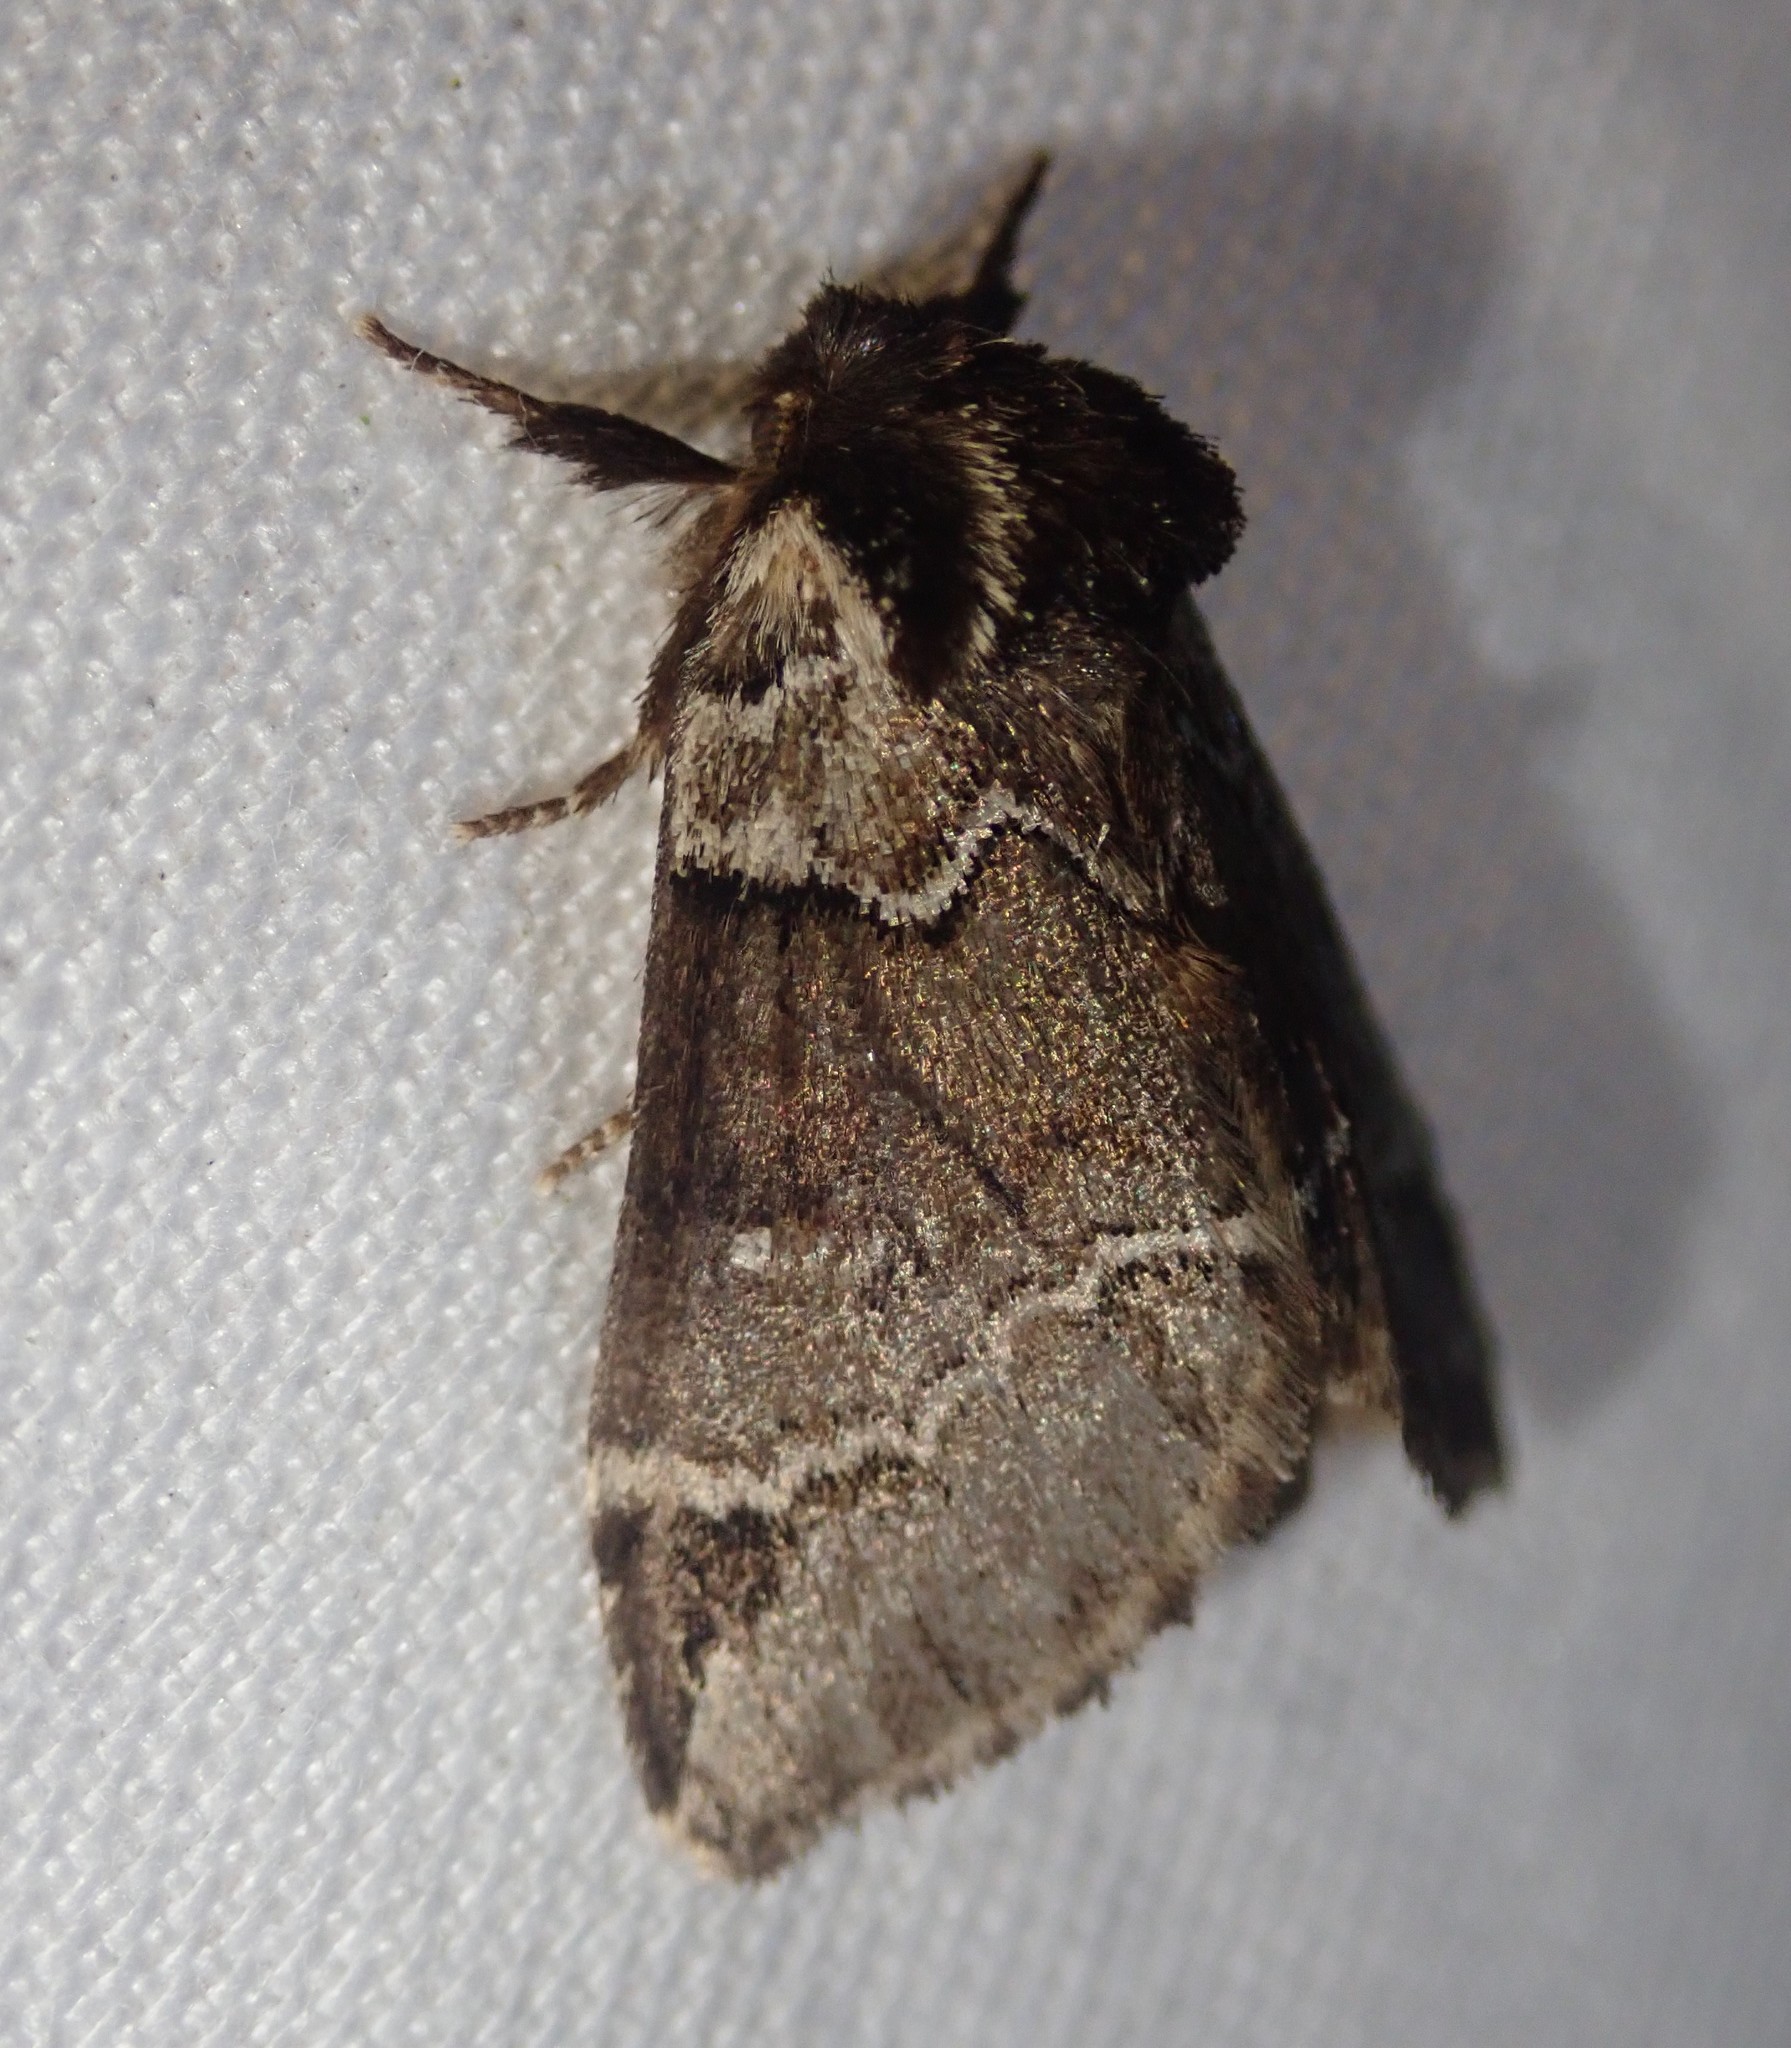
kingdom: Animalia
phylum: Arthropoda
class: Insecta
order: Lepidoptera
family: Notodontidae
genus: Drymonia
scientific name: Drymonia obliterata
